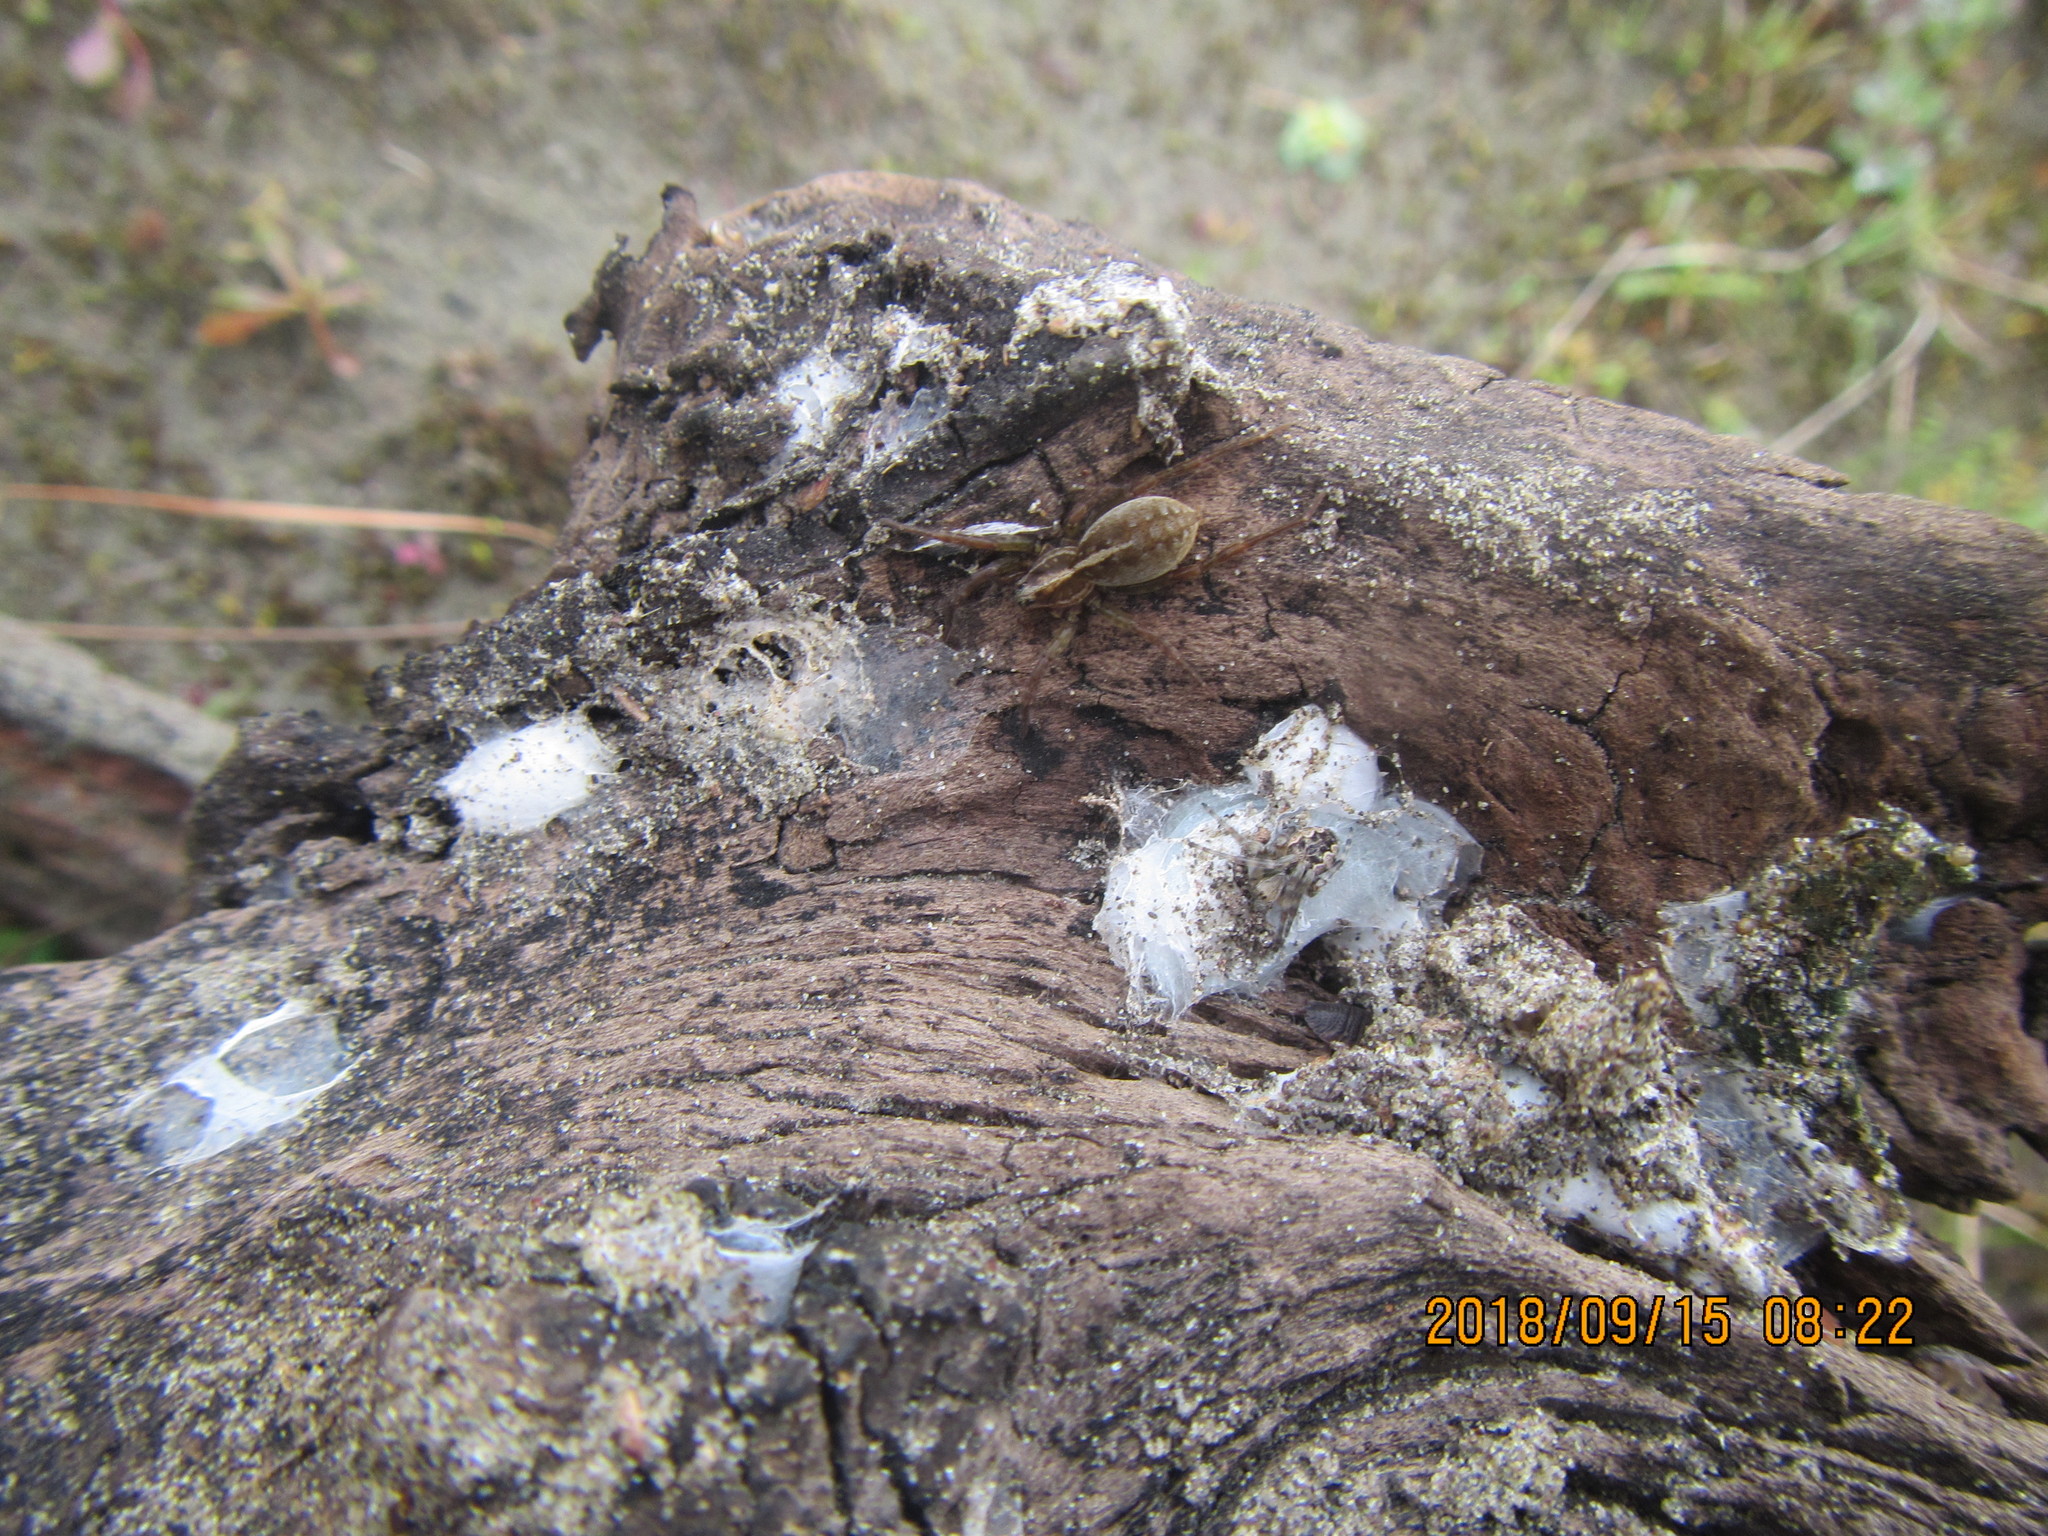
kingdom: Animalia
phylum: Arthropoda
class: Arachnida
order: Araneae
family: Pisauridae
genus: Dolomedes
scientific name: Dolomedes minor
